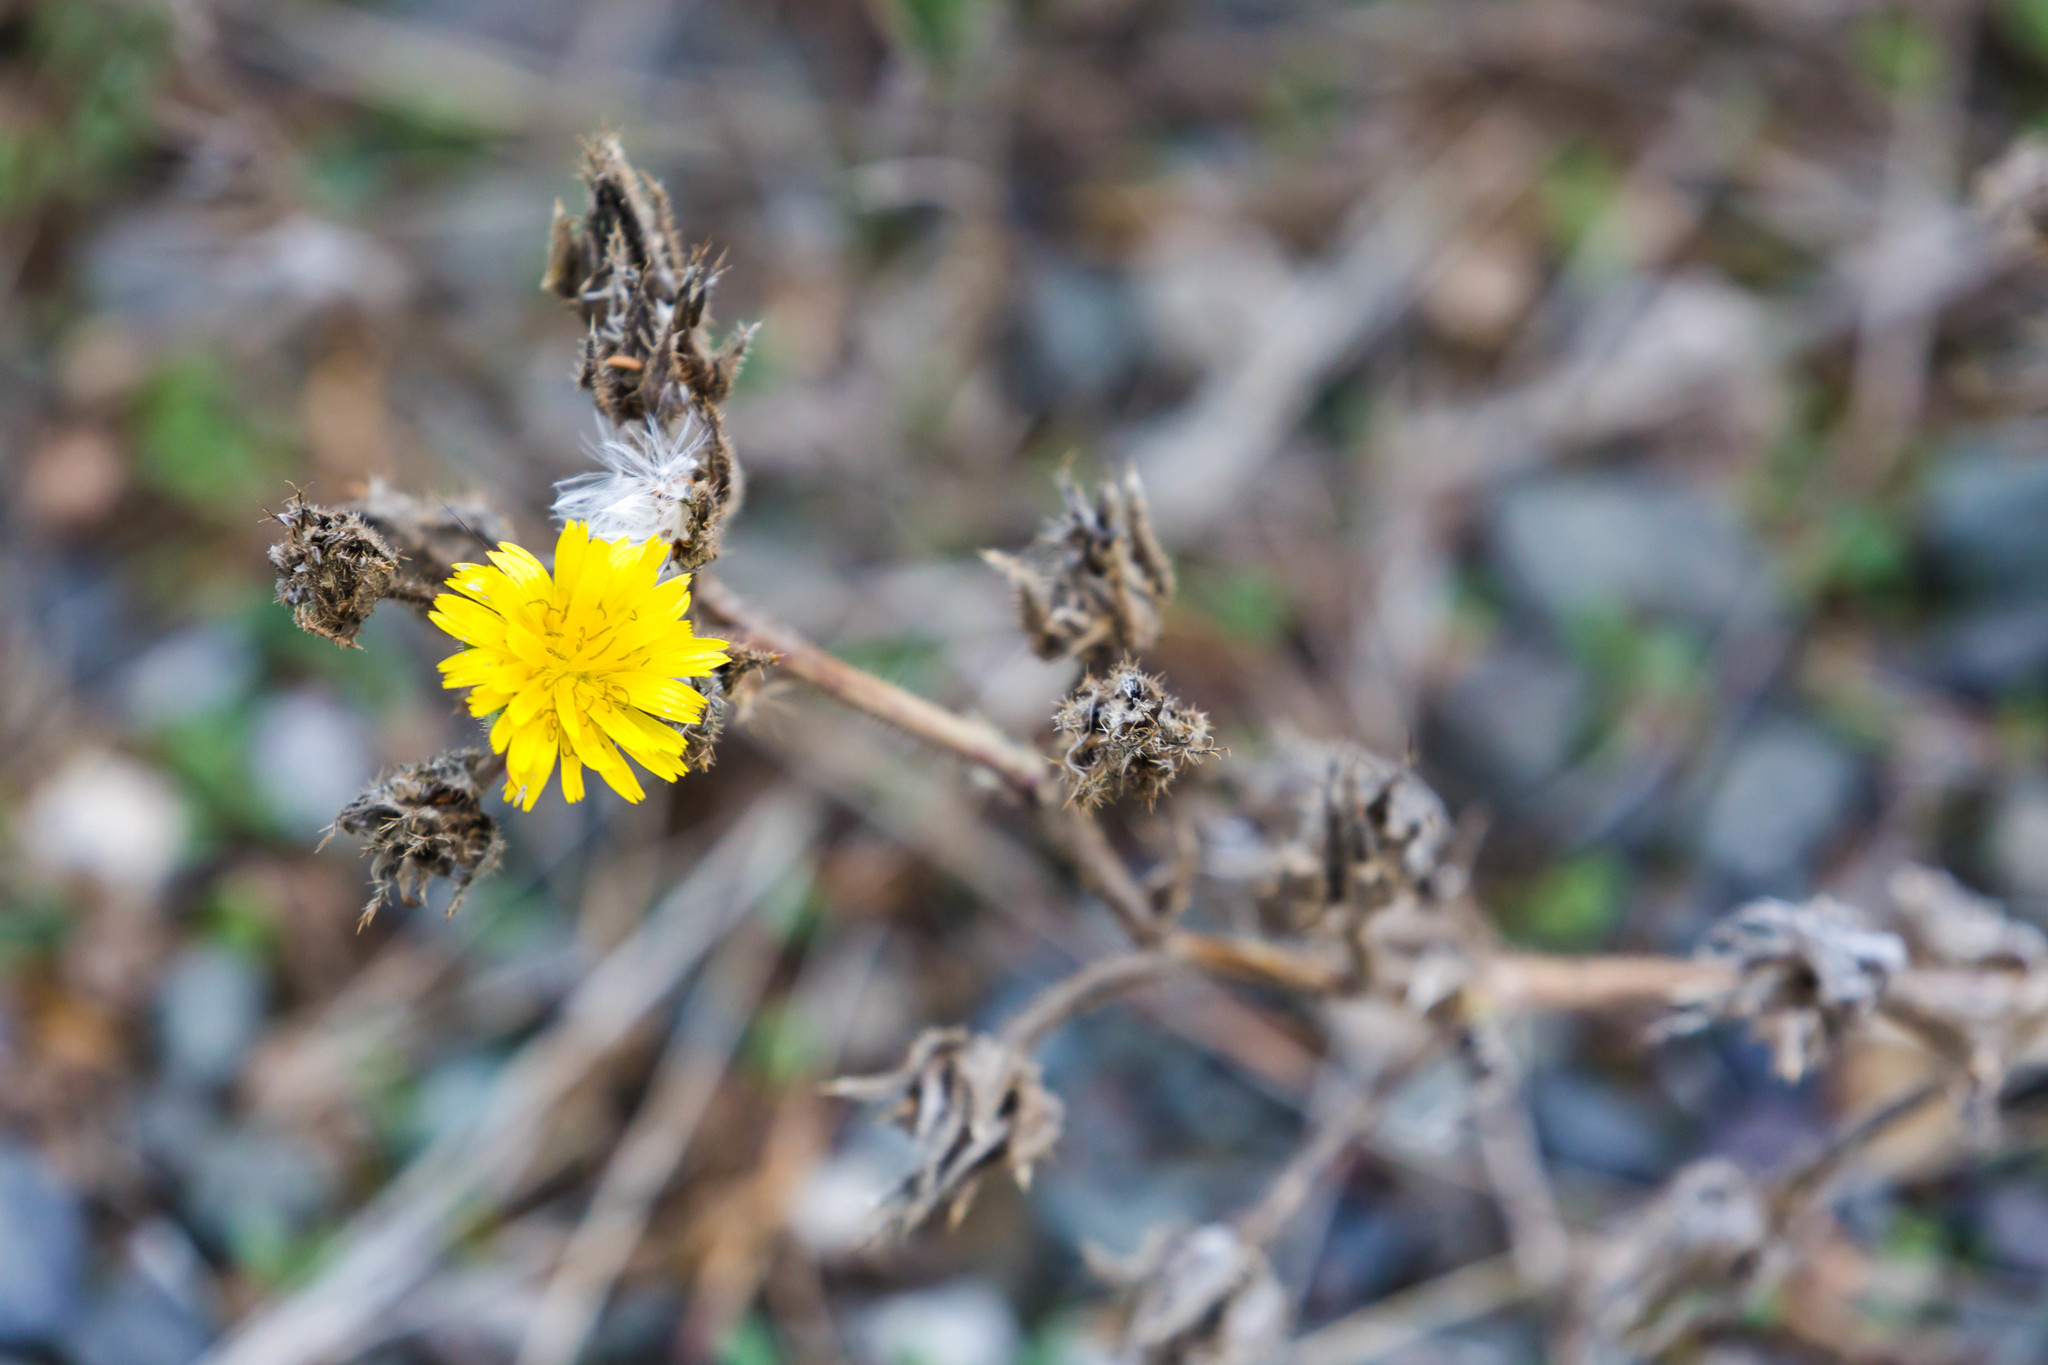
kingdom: Plantae
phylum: Tracheophyta
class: Magnoliopsida
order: Asterales
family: Asteraceae
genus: Helminthotheca
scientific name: Helminthotheca echioides
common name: Ox-tongue
